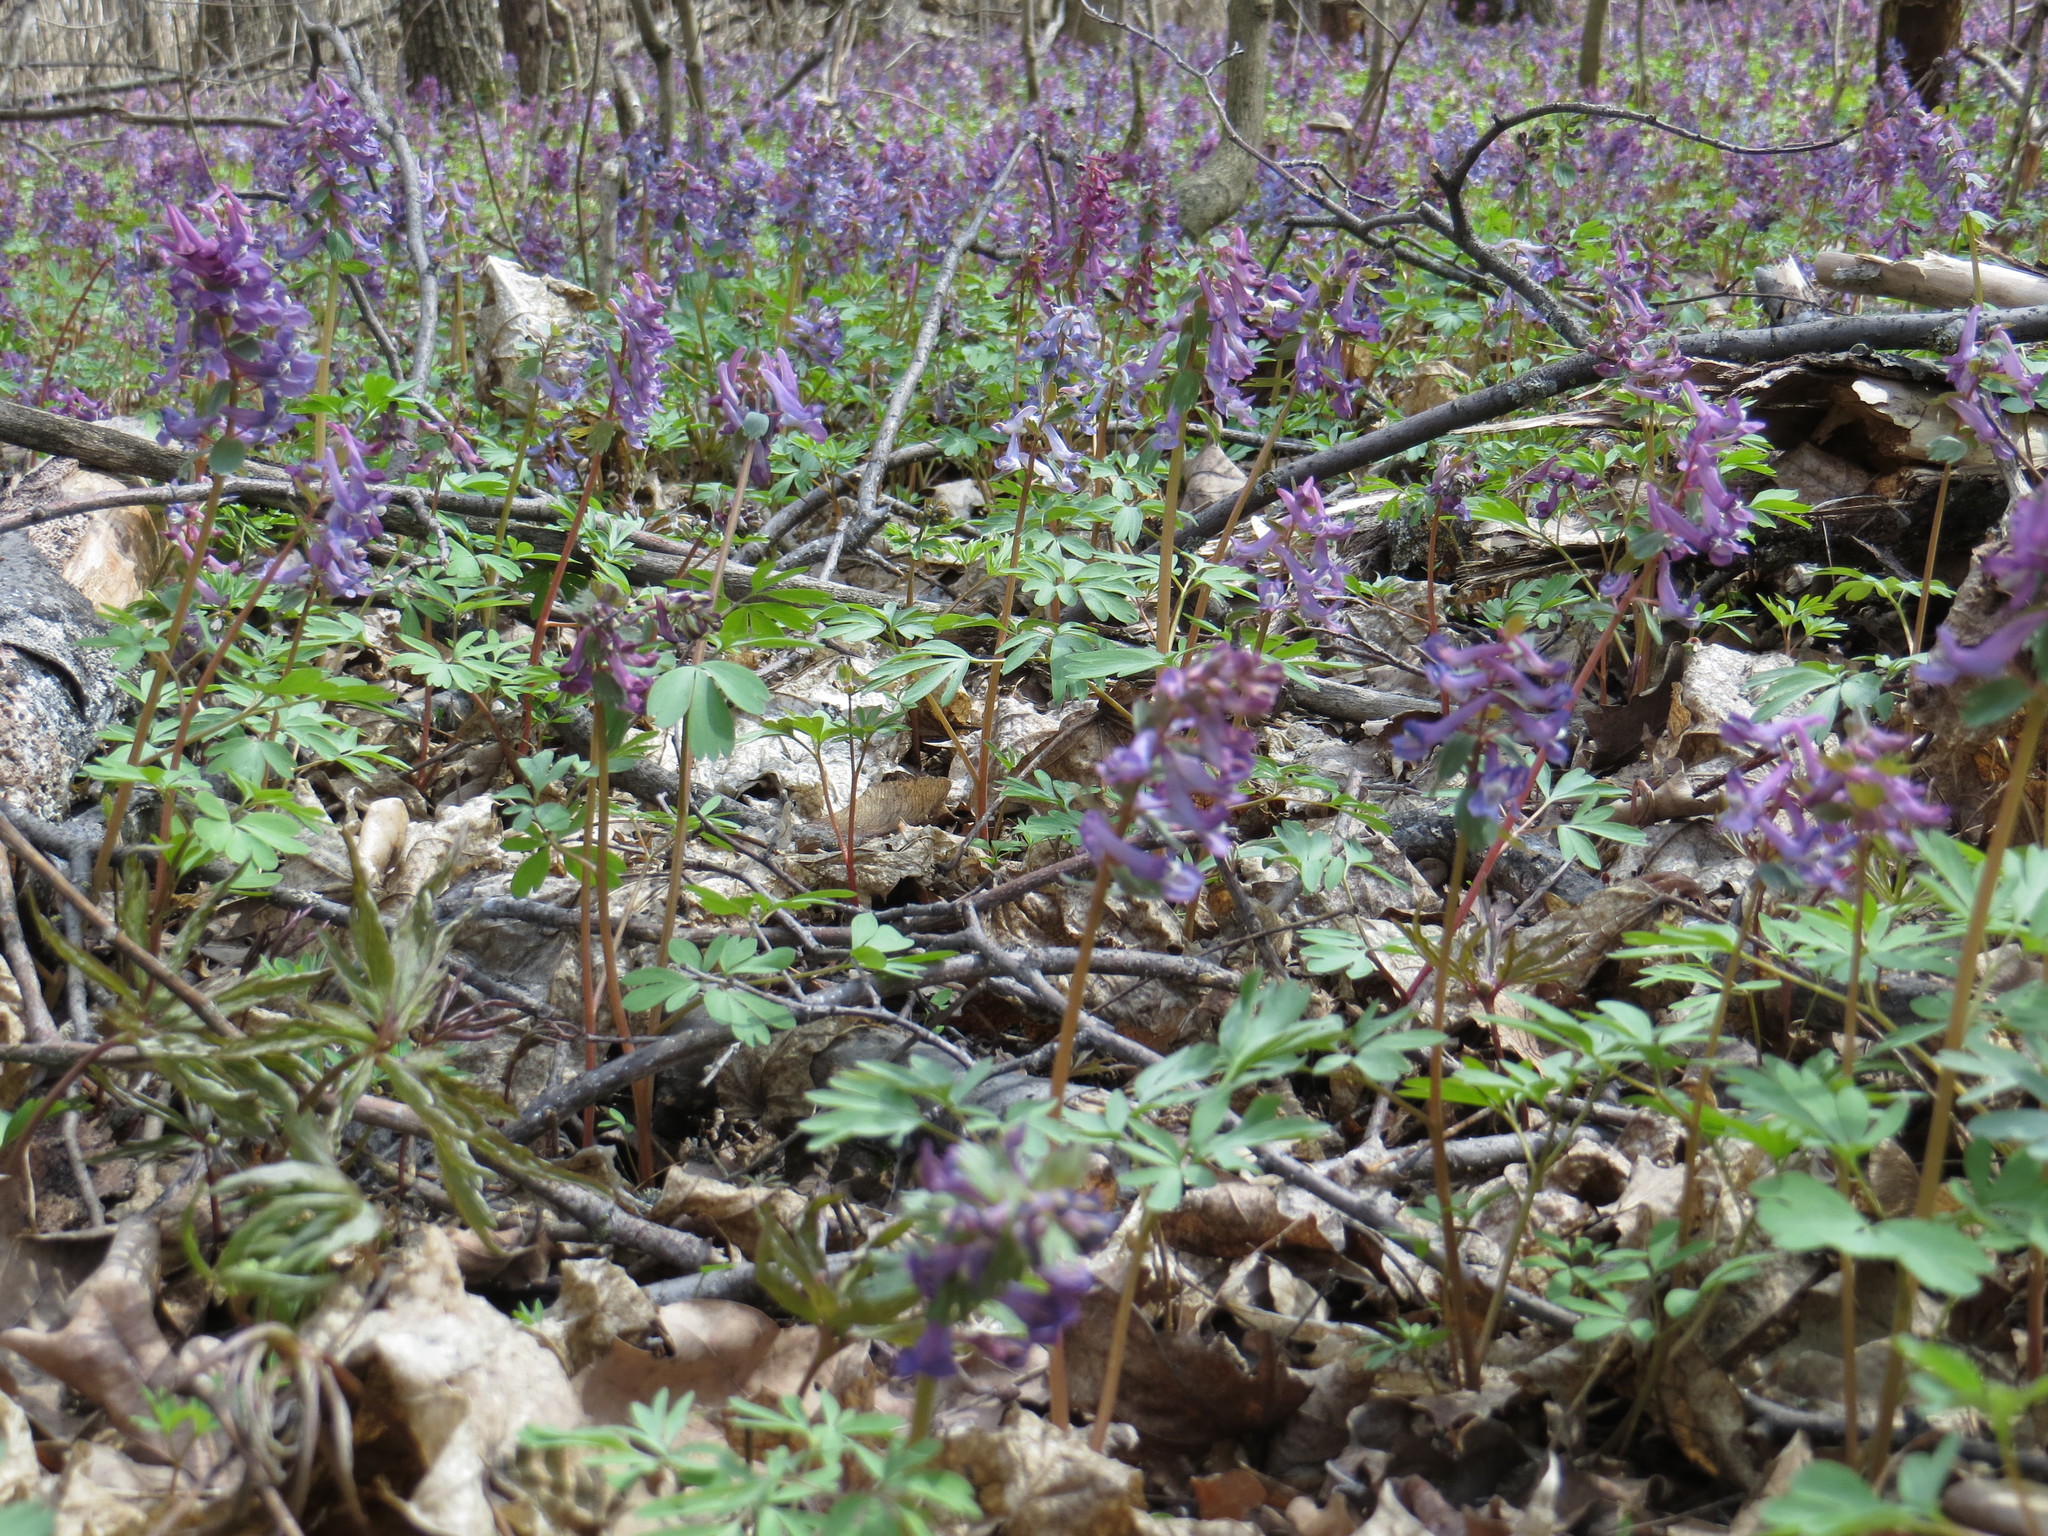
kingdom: Plantae
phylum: Tracheophyta
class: Magnoliopsida
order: Ranunculales
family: Papaveraceae
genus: Corydalis
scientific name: Corydalis solida
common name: Bird-in-a-bush
